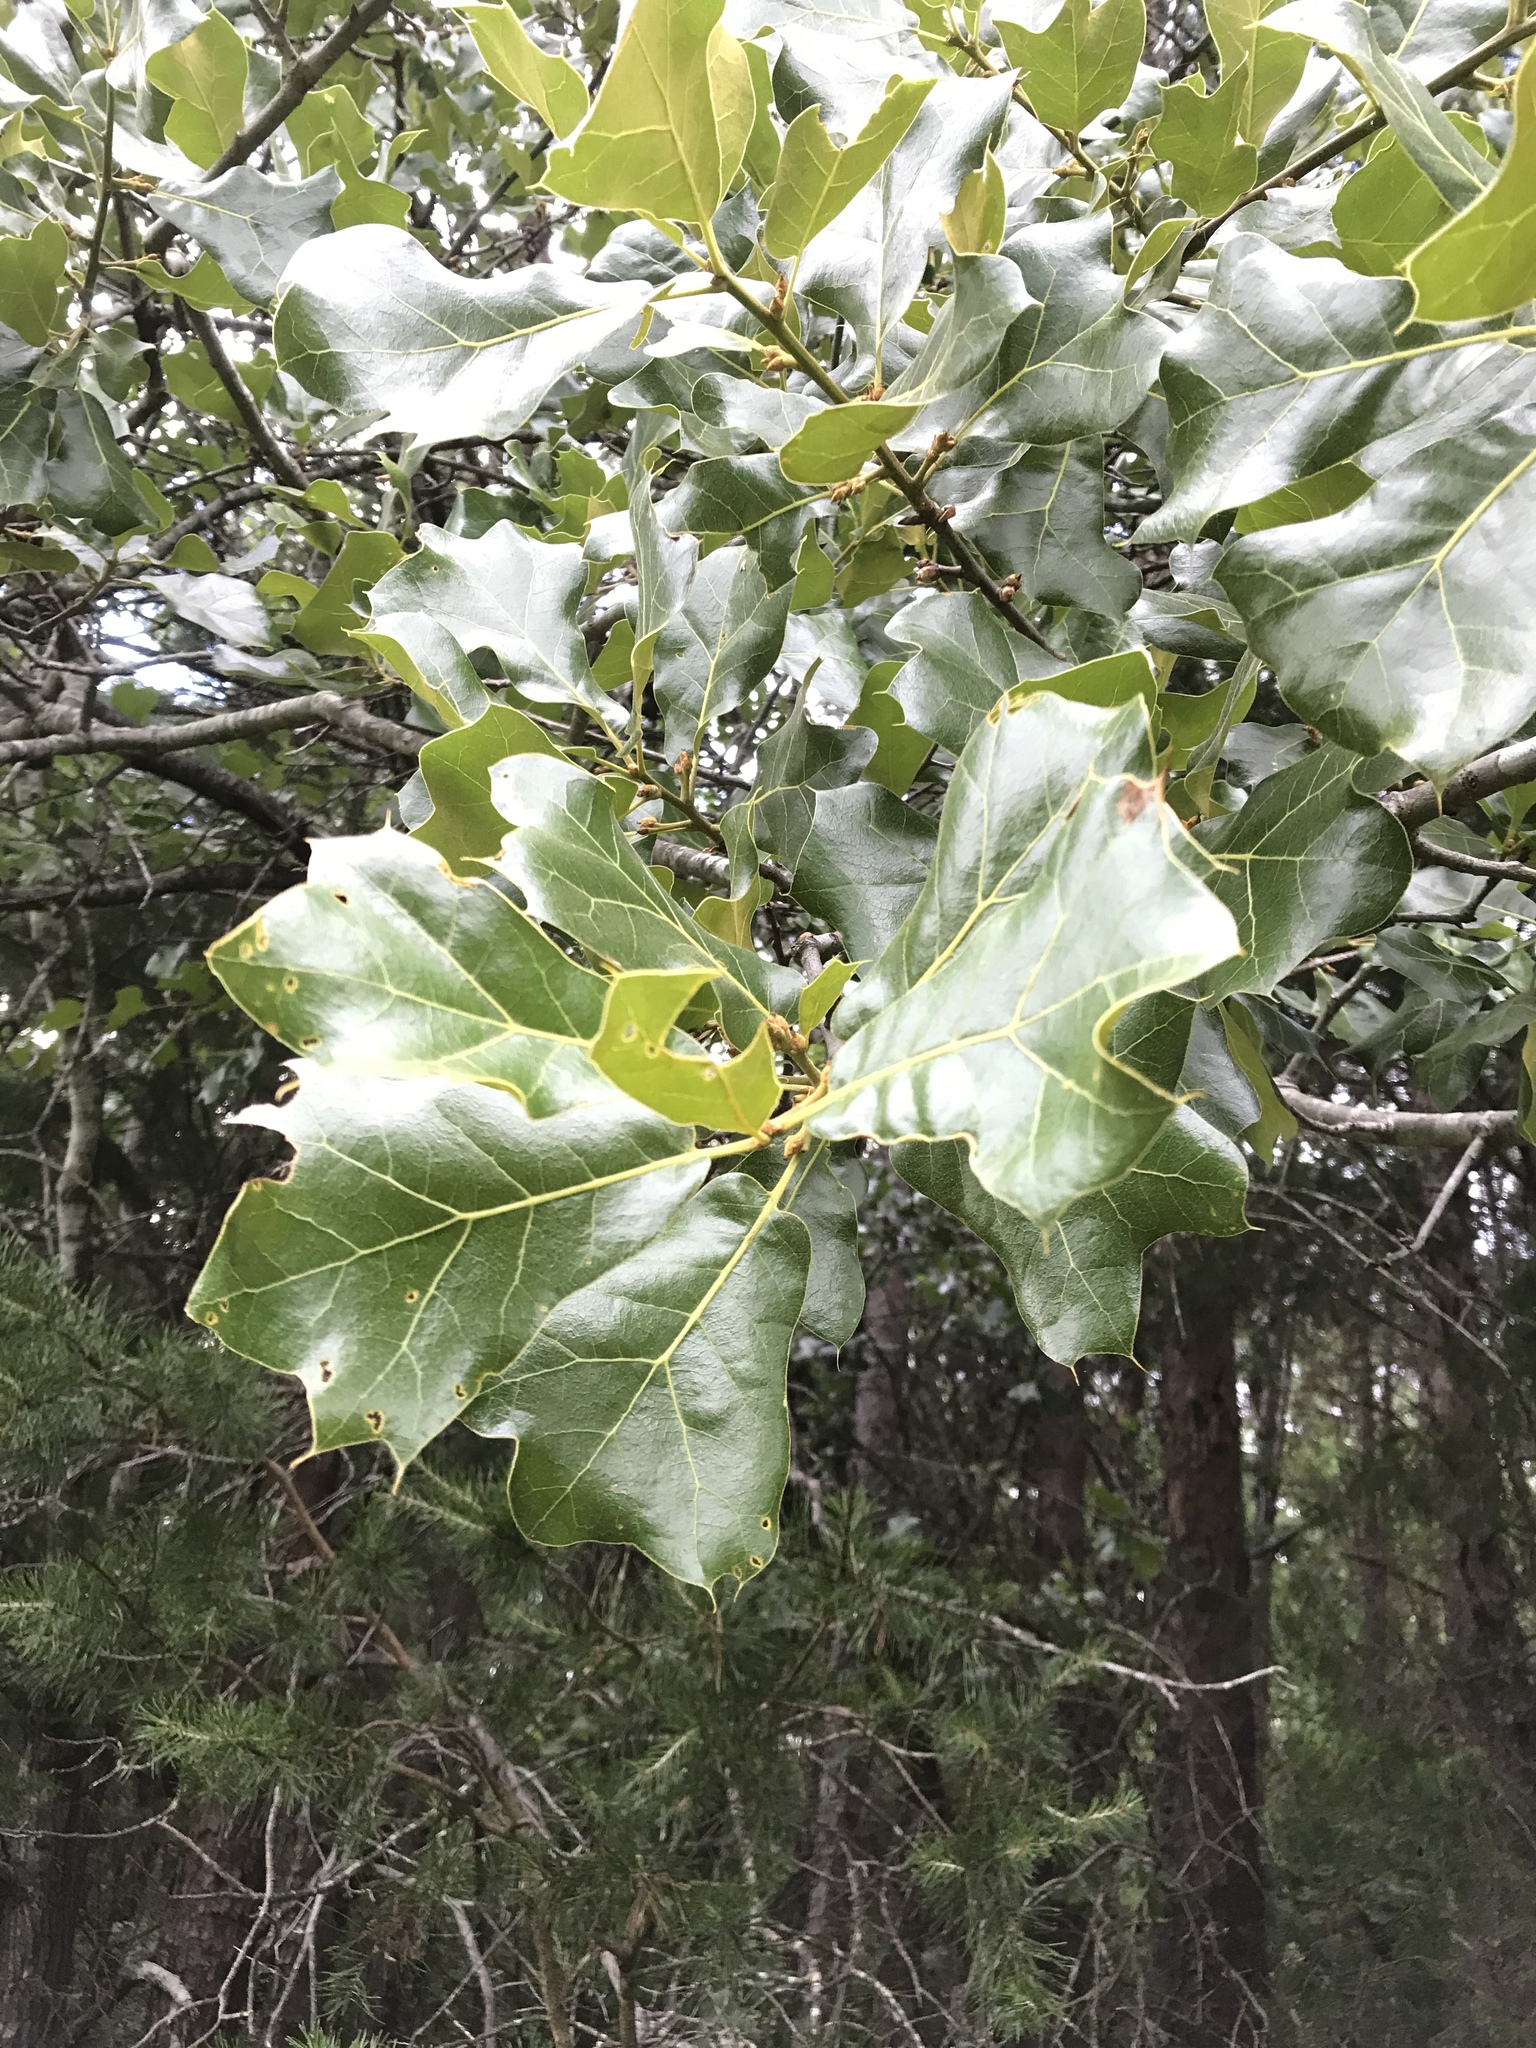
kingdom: Plantae
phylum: Tracheophyta
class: Magnoliopsida
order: Fagales
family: Fagaceae
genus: Quercus
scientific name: Quercus marilandica
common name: Blackjack oak
